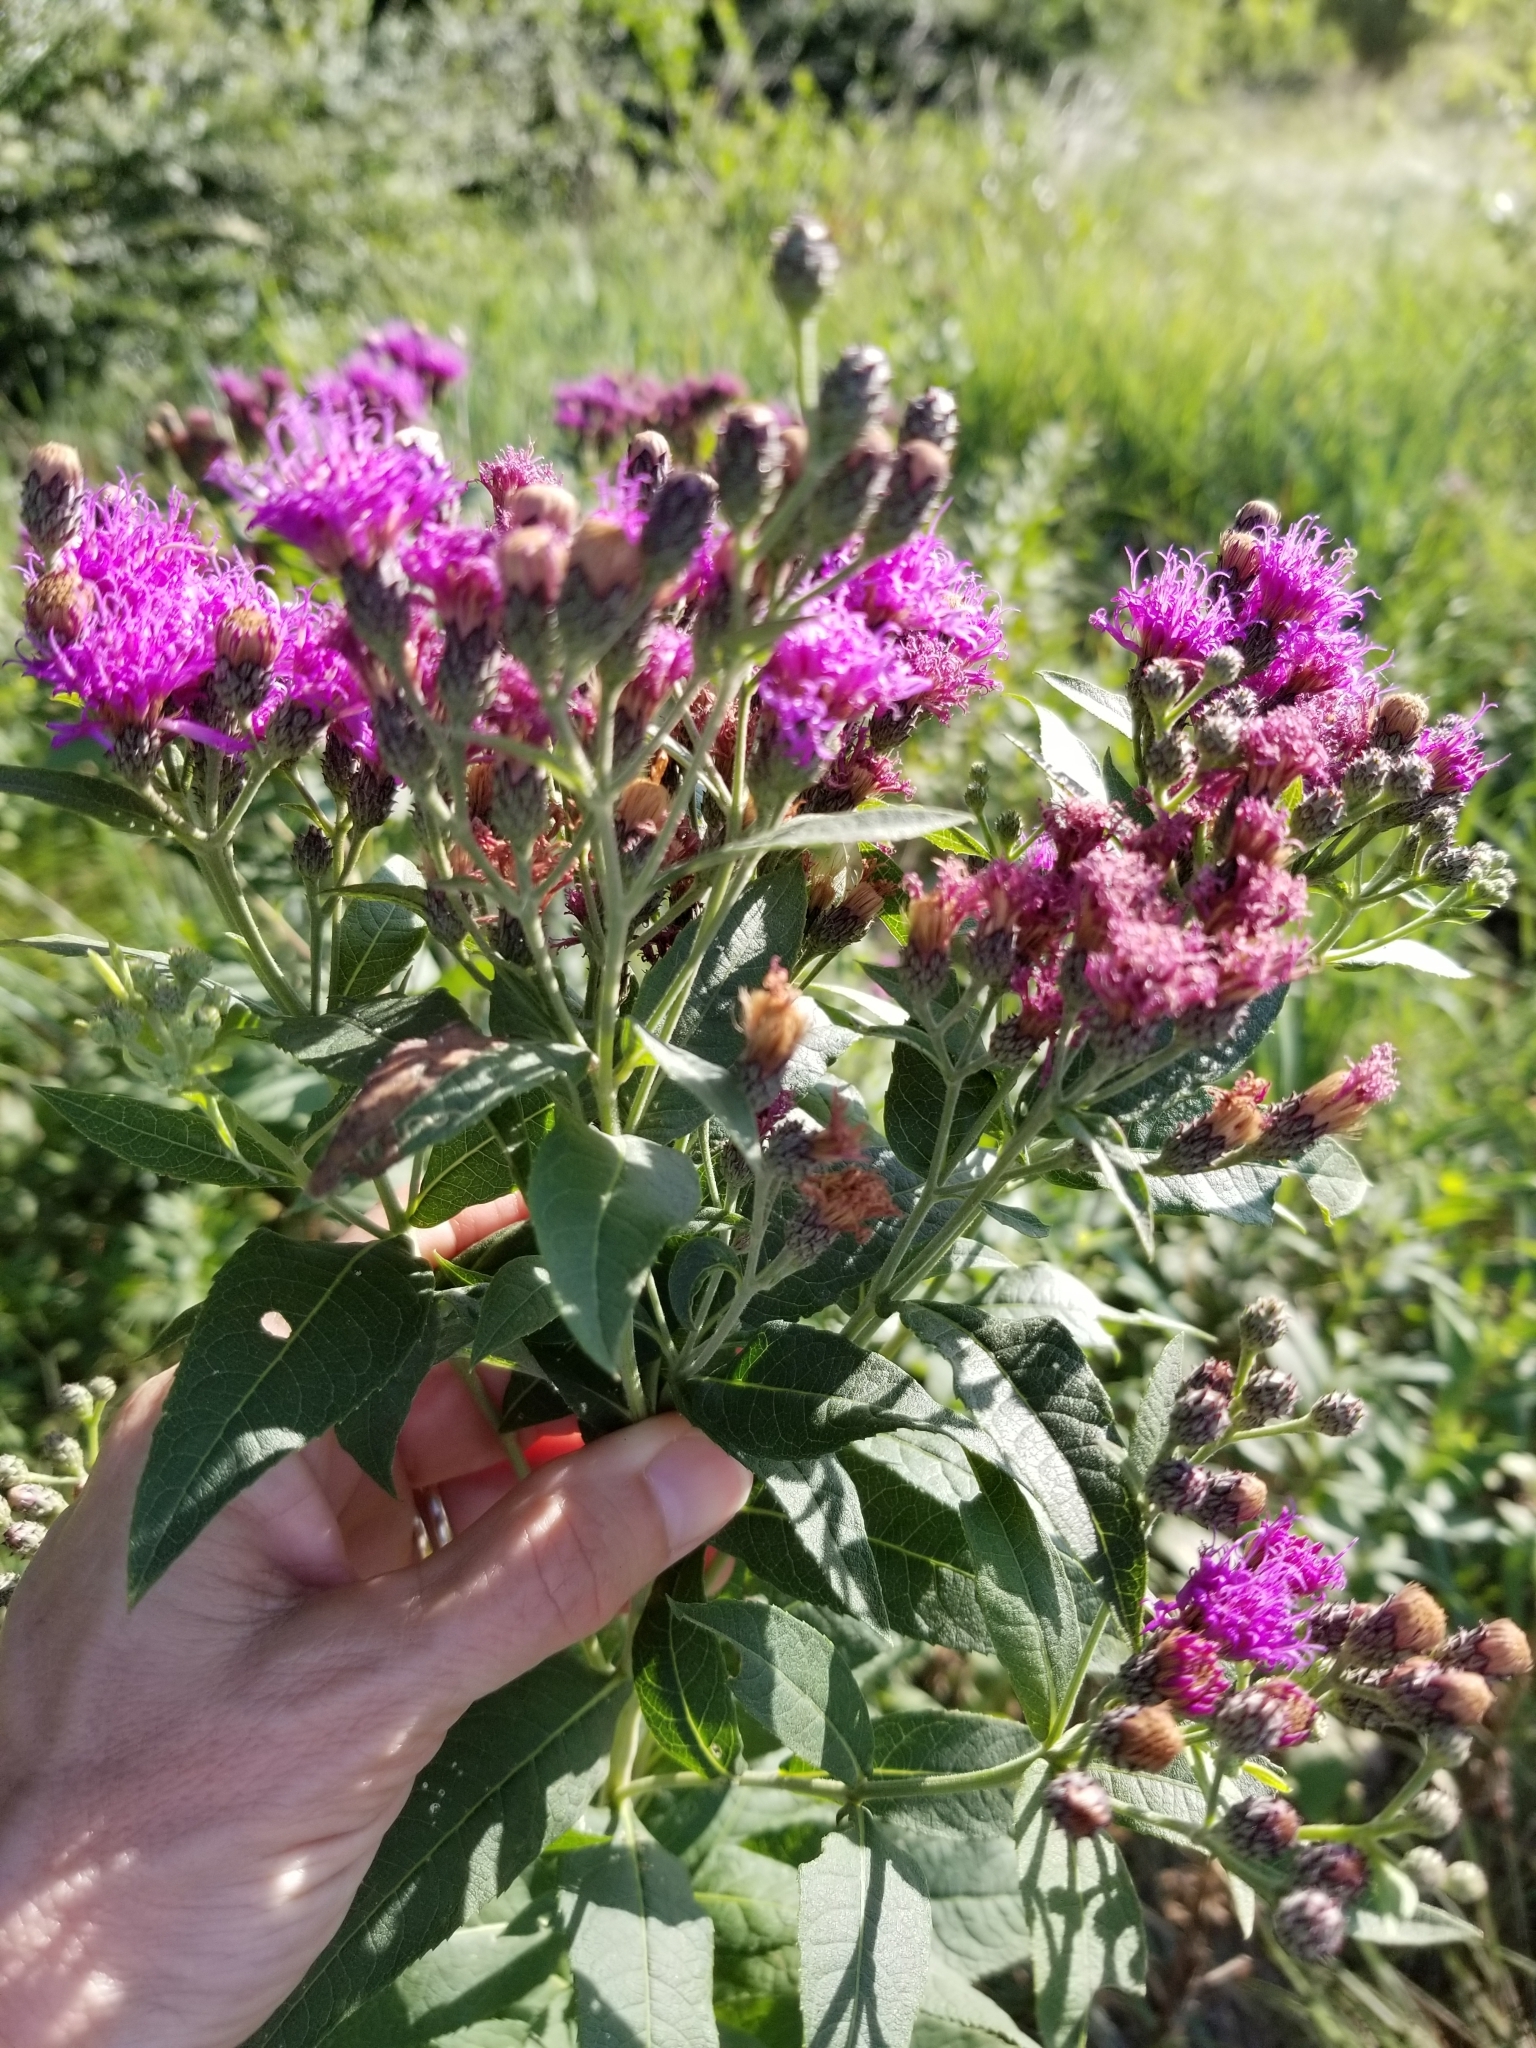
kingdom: Plantae
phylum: Tracheophyta
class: Magnoliopsida
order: Asterales
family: Asteraceae
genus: Vernonia
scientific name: Vernonia baldwinii
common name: Western ironweed
